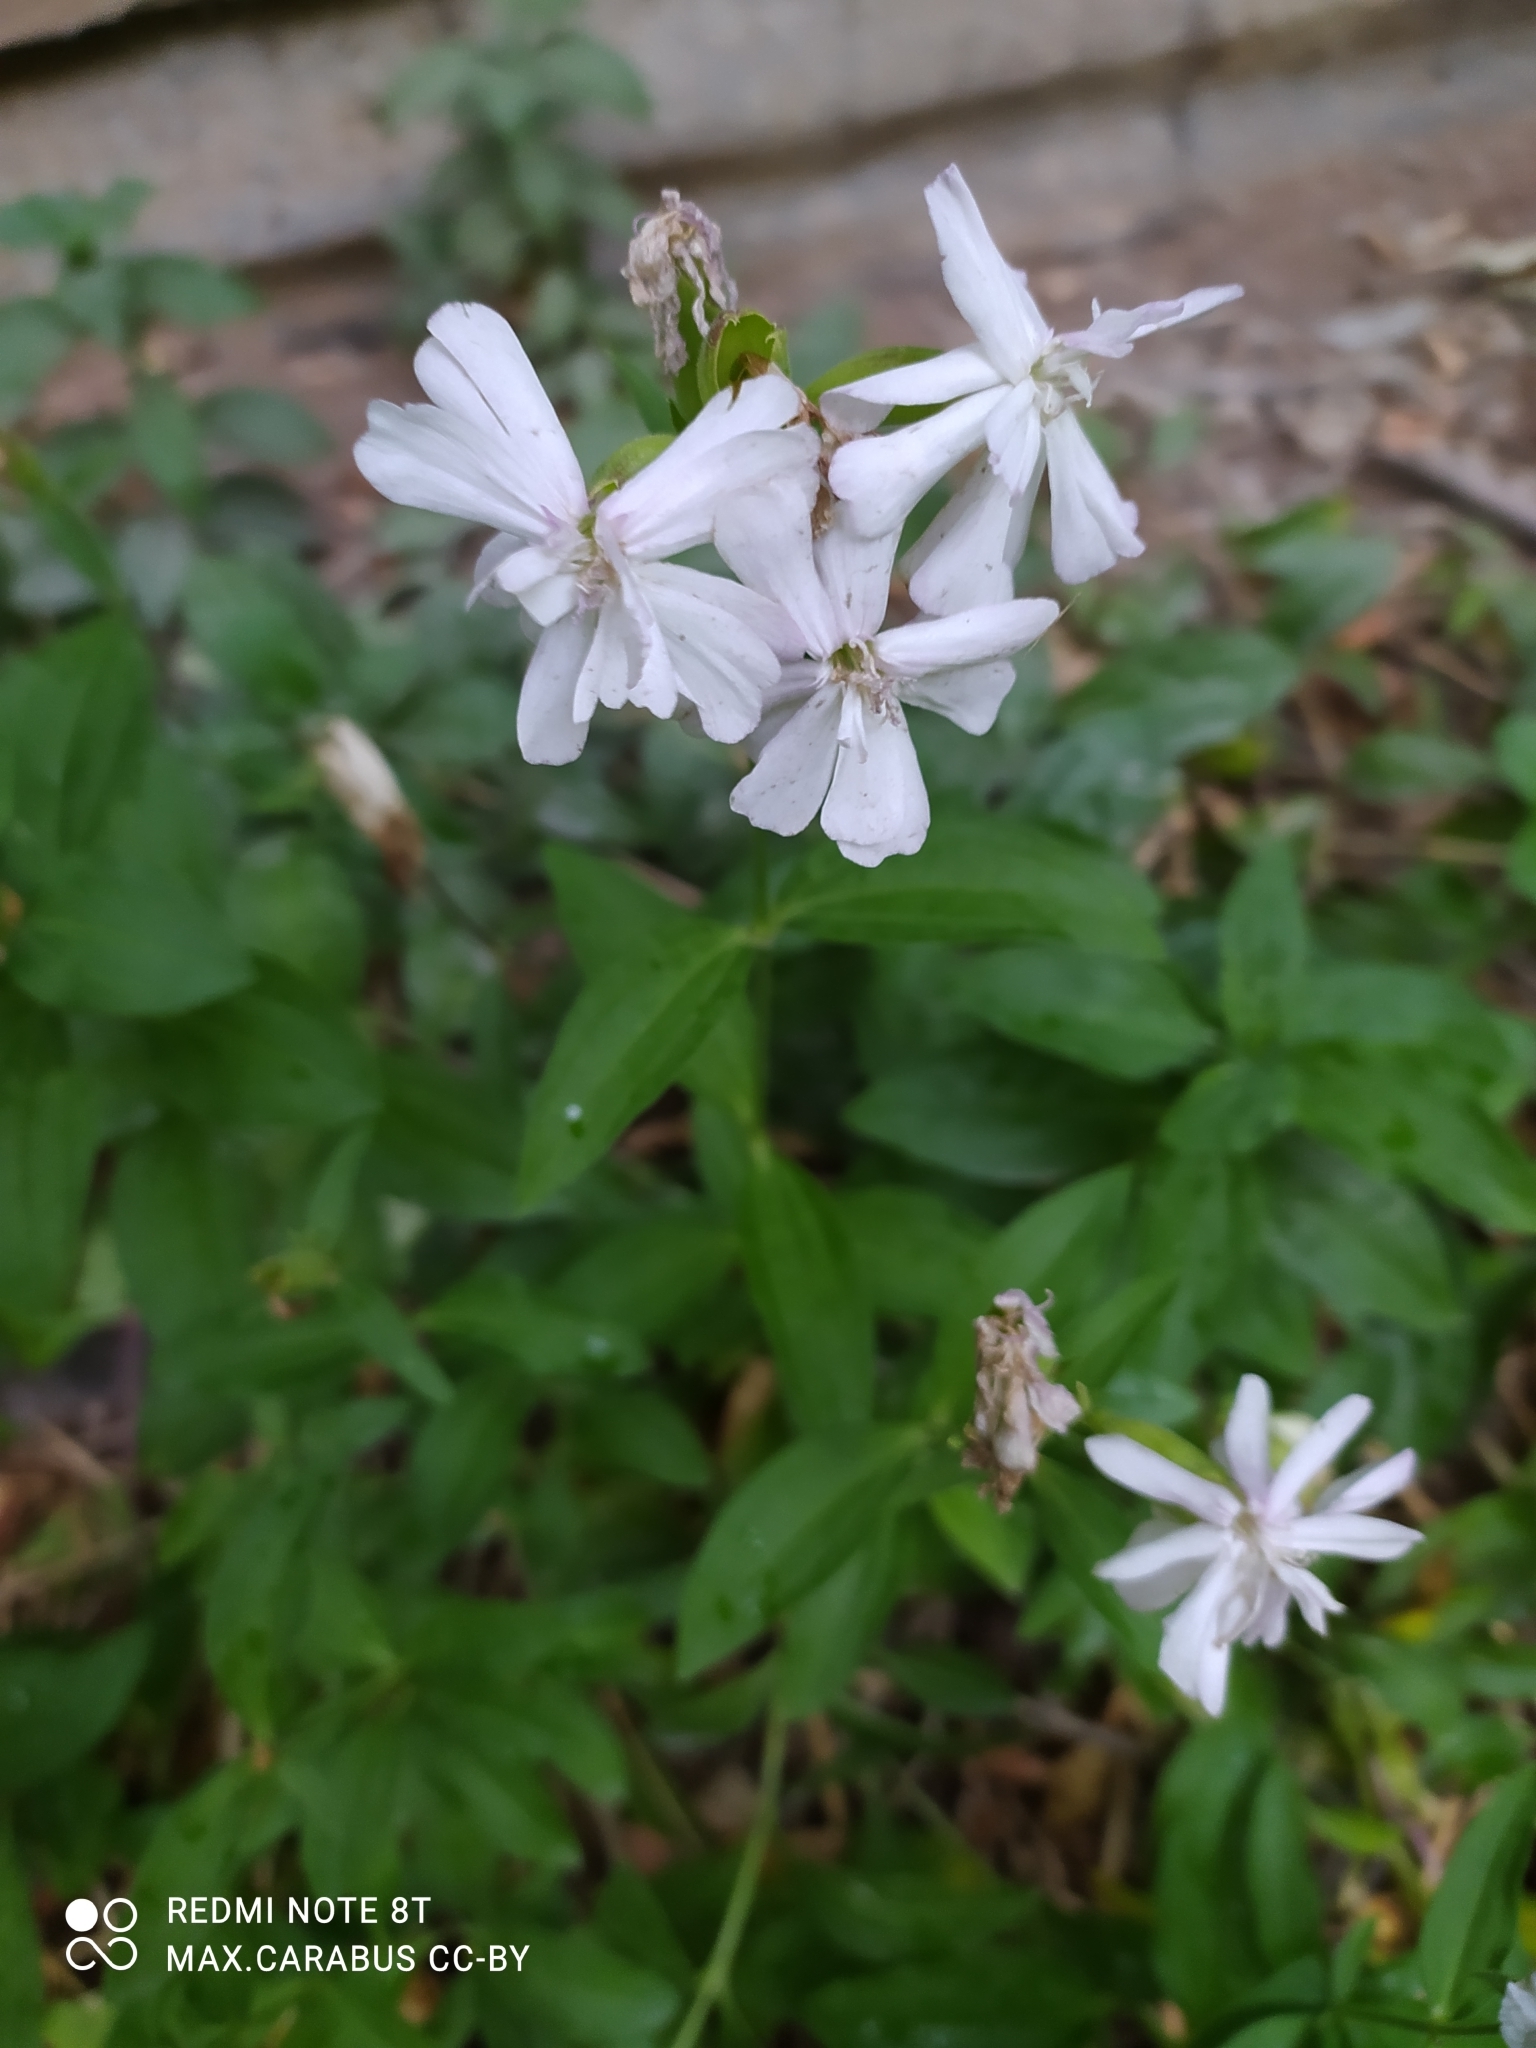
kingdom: Plantae
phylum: Tracheophyta
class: Magnoliopsida
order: Caryophyllales
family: Caryophyllaceae
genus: Saponaria
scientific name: Saponaria officinalis
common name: Soapwort
